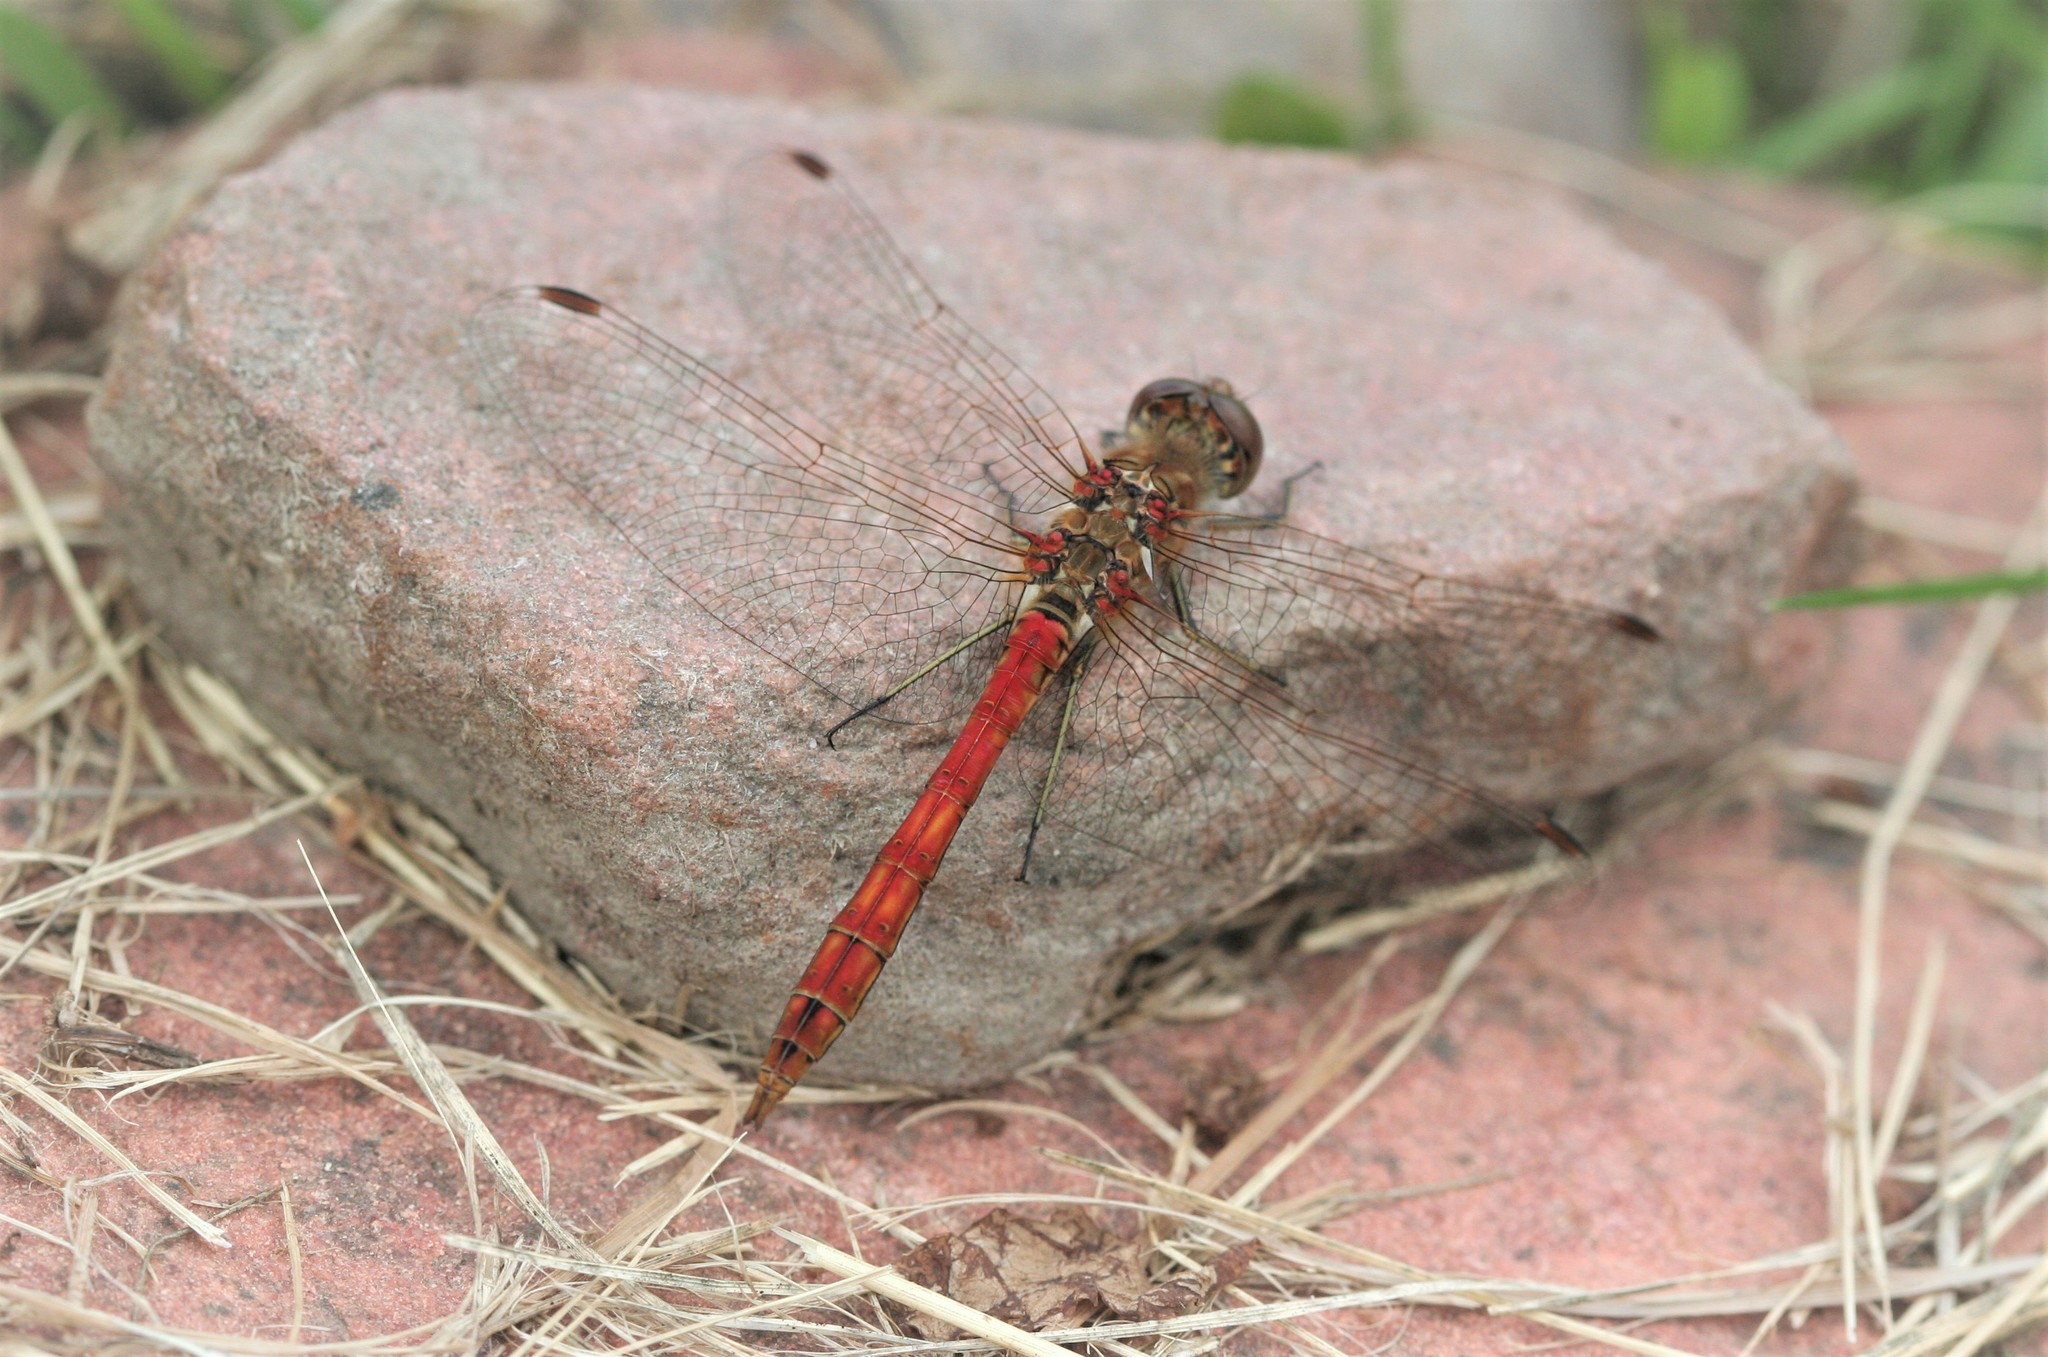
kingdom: Animalia
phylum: Arthropoda
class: Insecta
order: Odonata
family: Libellulidae
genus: Sympetrum
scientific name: Sympetrum striolatum
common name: Common darter
